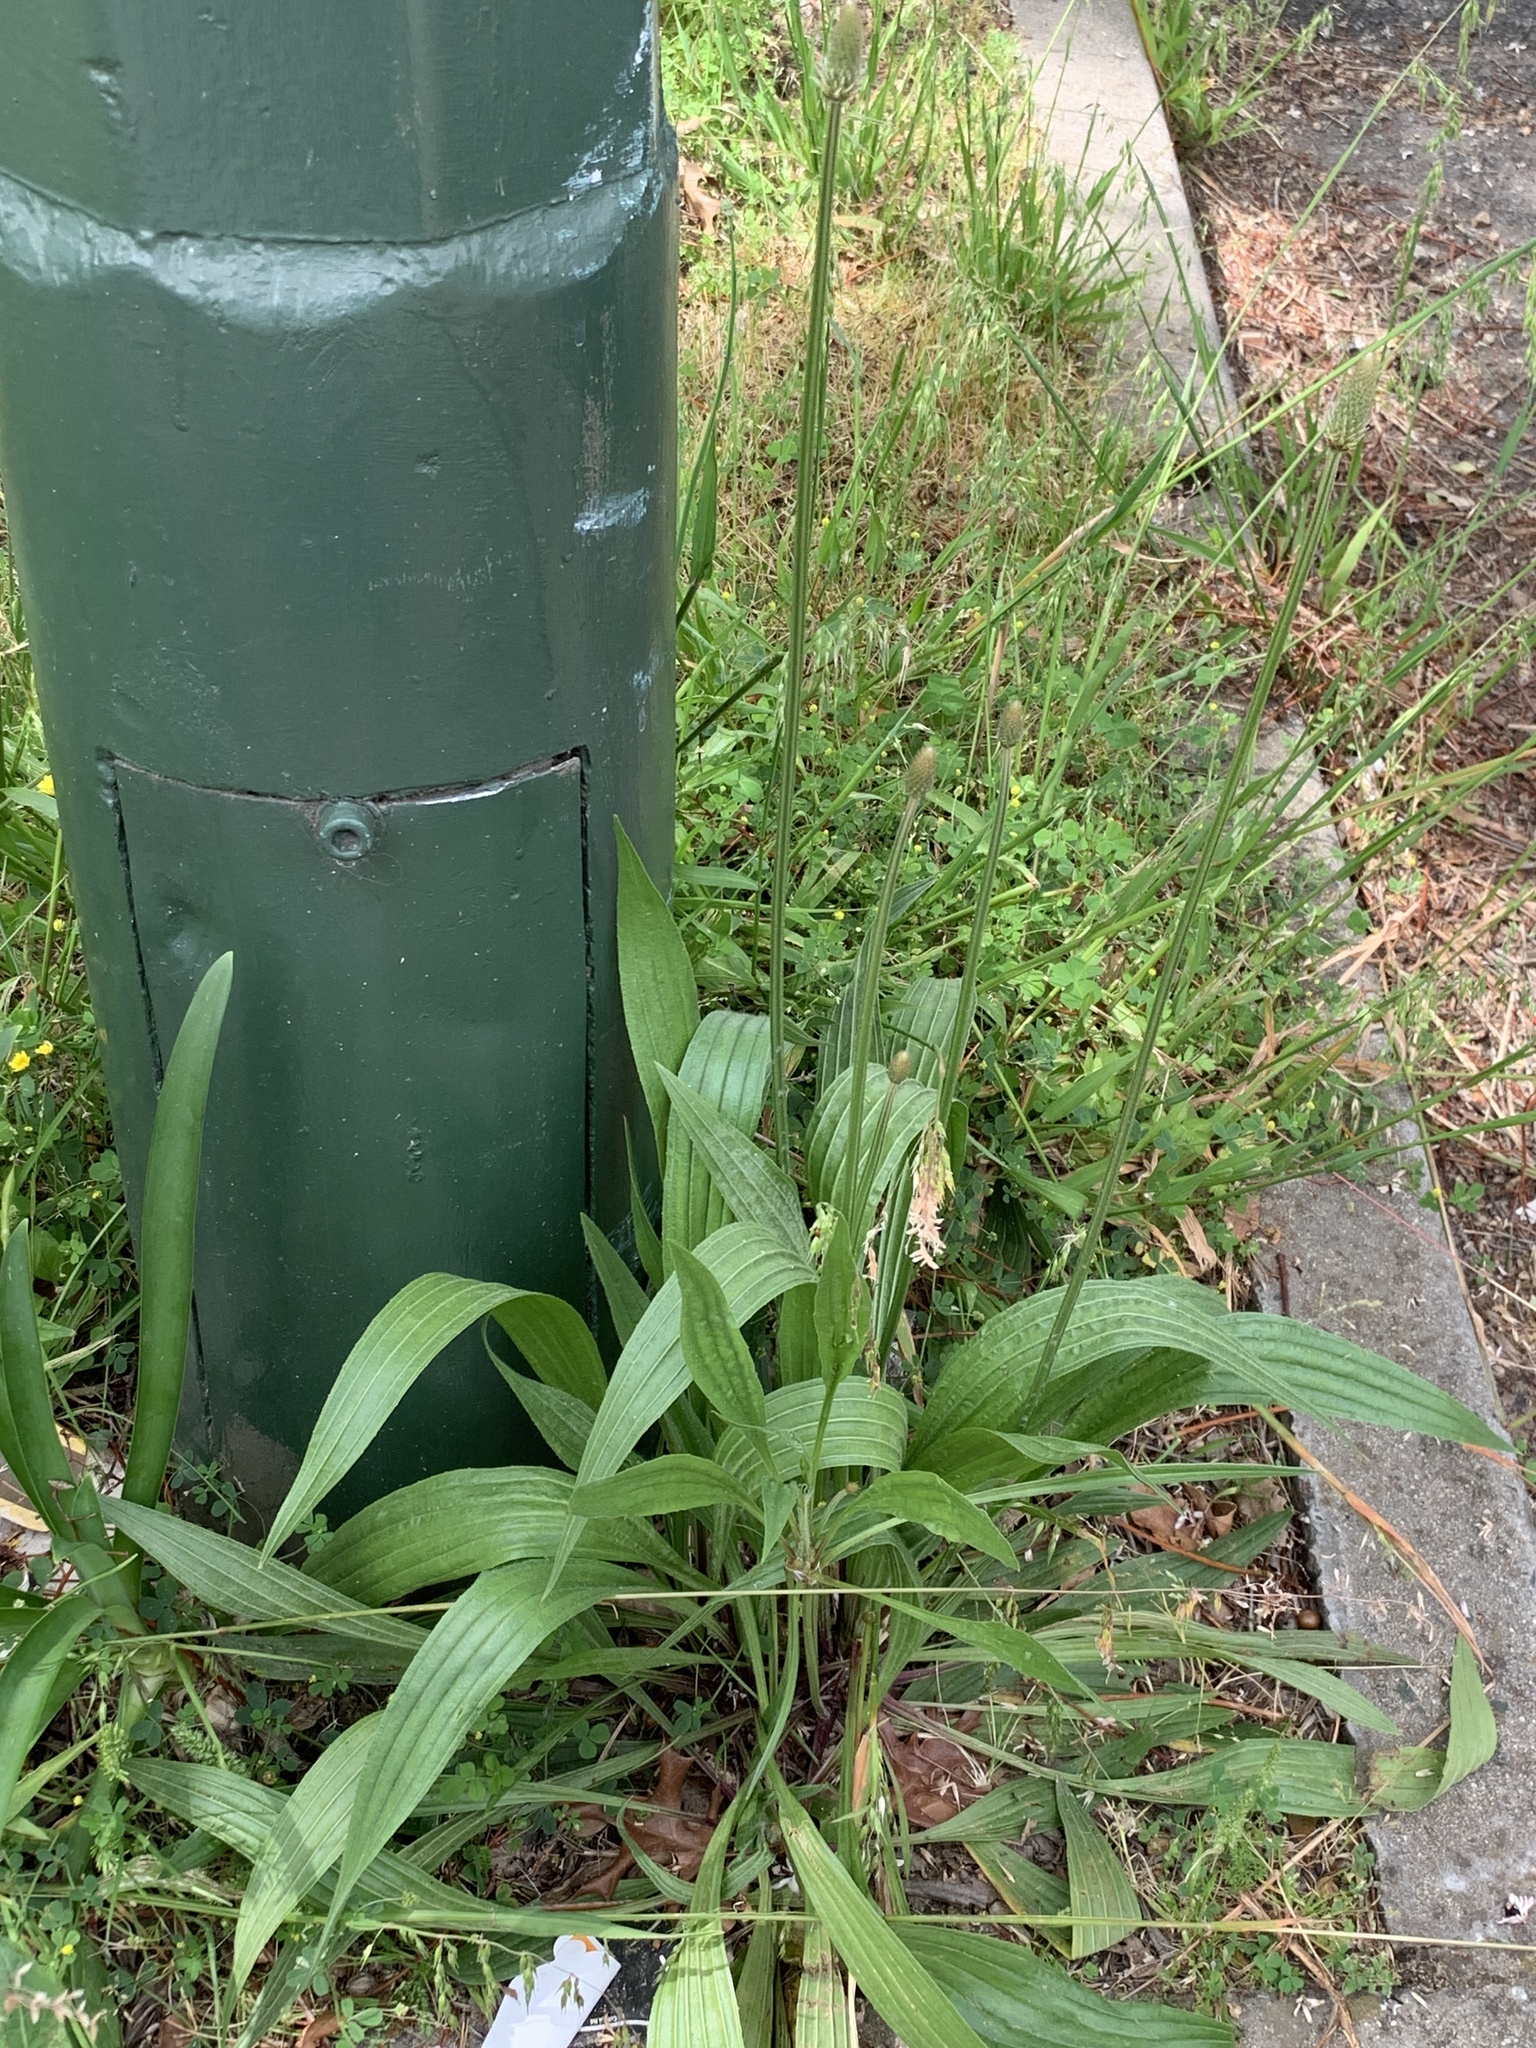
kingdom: Plantae
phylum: Tracheophyta
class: Magnoliopsida
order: Lamiales
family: Plantaginaceae
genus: Plantago
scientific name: Plantago lanceolata
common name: Ribwort plantain
